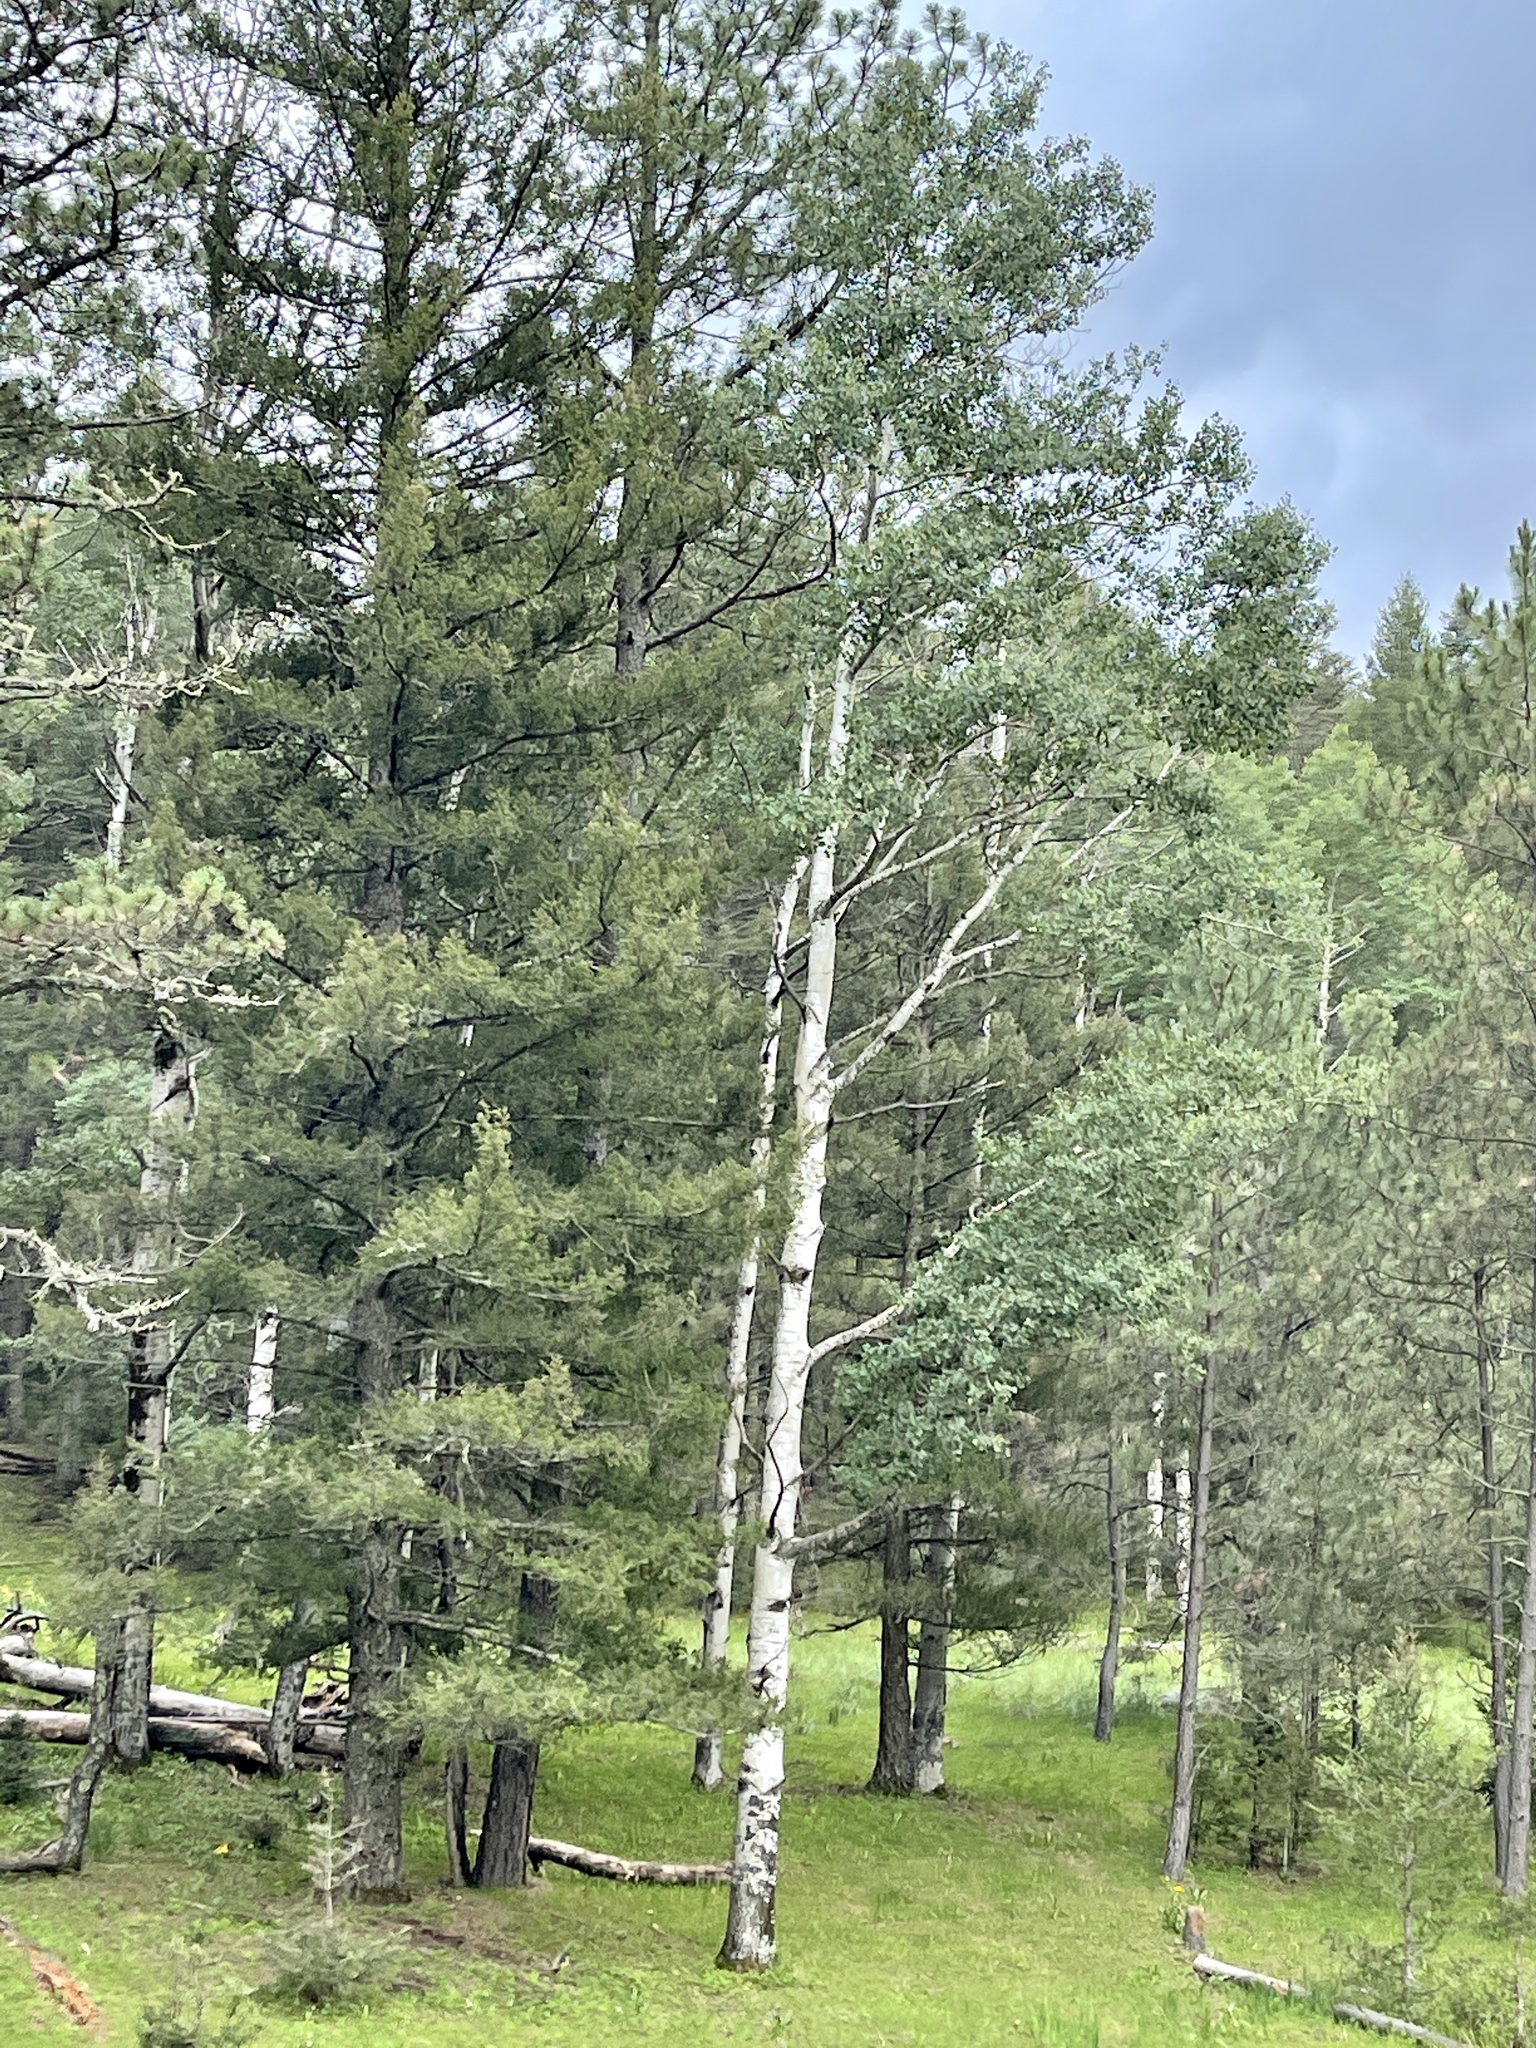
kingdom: Plantae
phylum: Tracheophyta
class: Magnoliopsida
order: Malpighiales
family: Salicaceae
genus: Populus
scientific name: Populus tremuloides
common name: Quaking aspen
